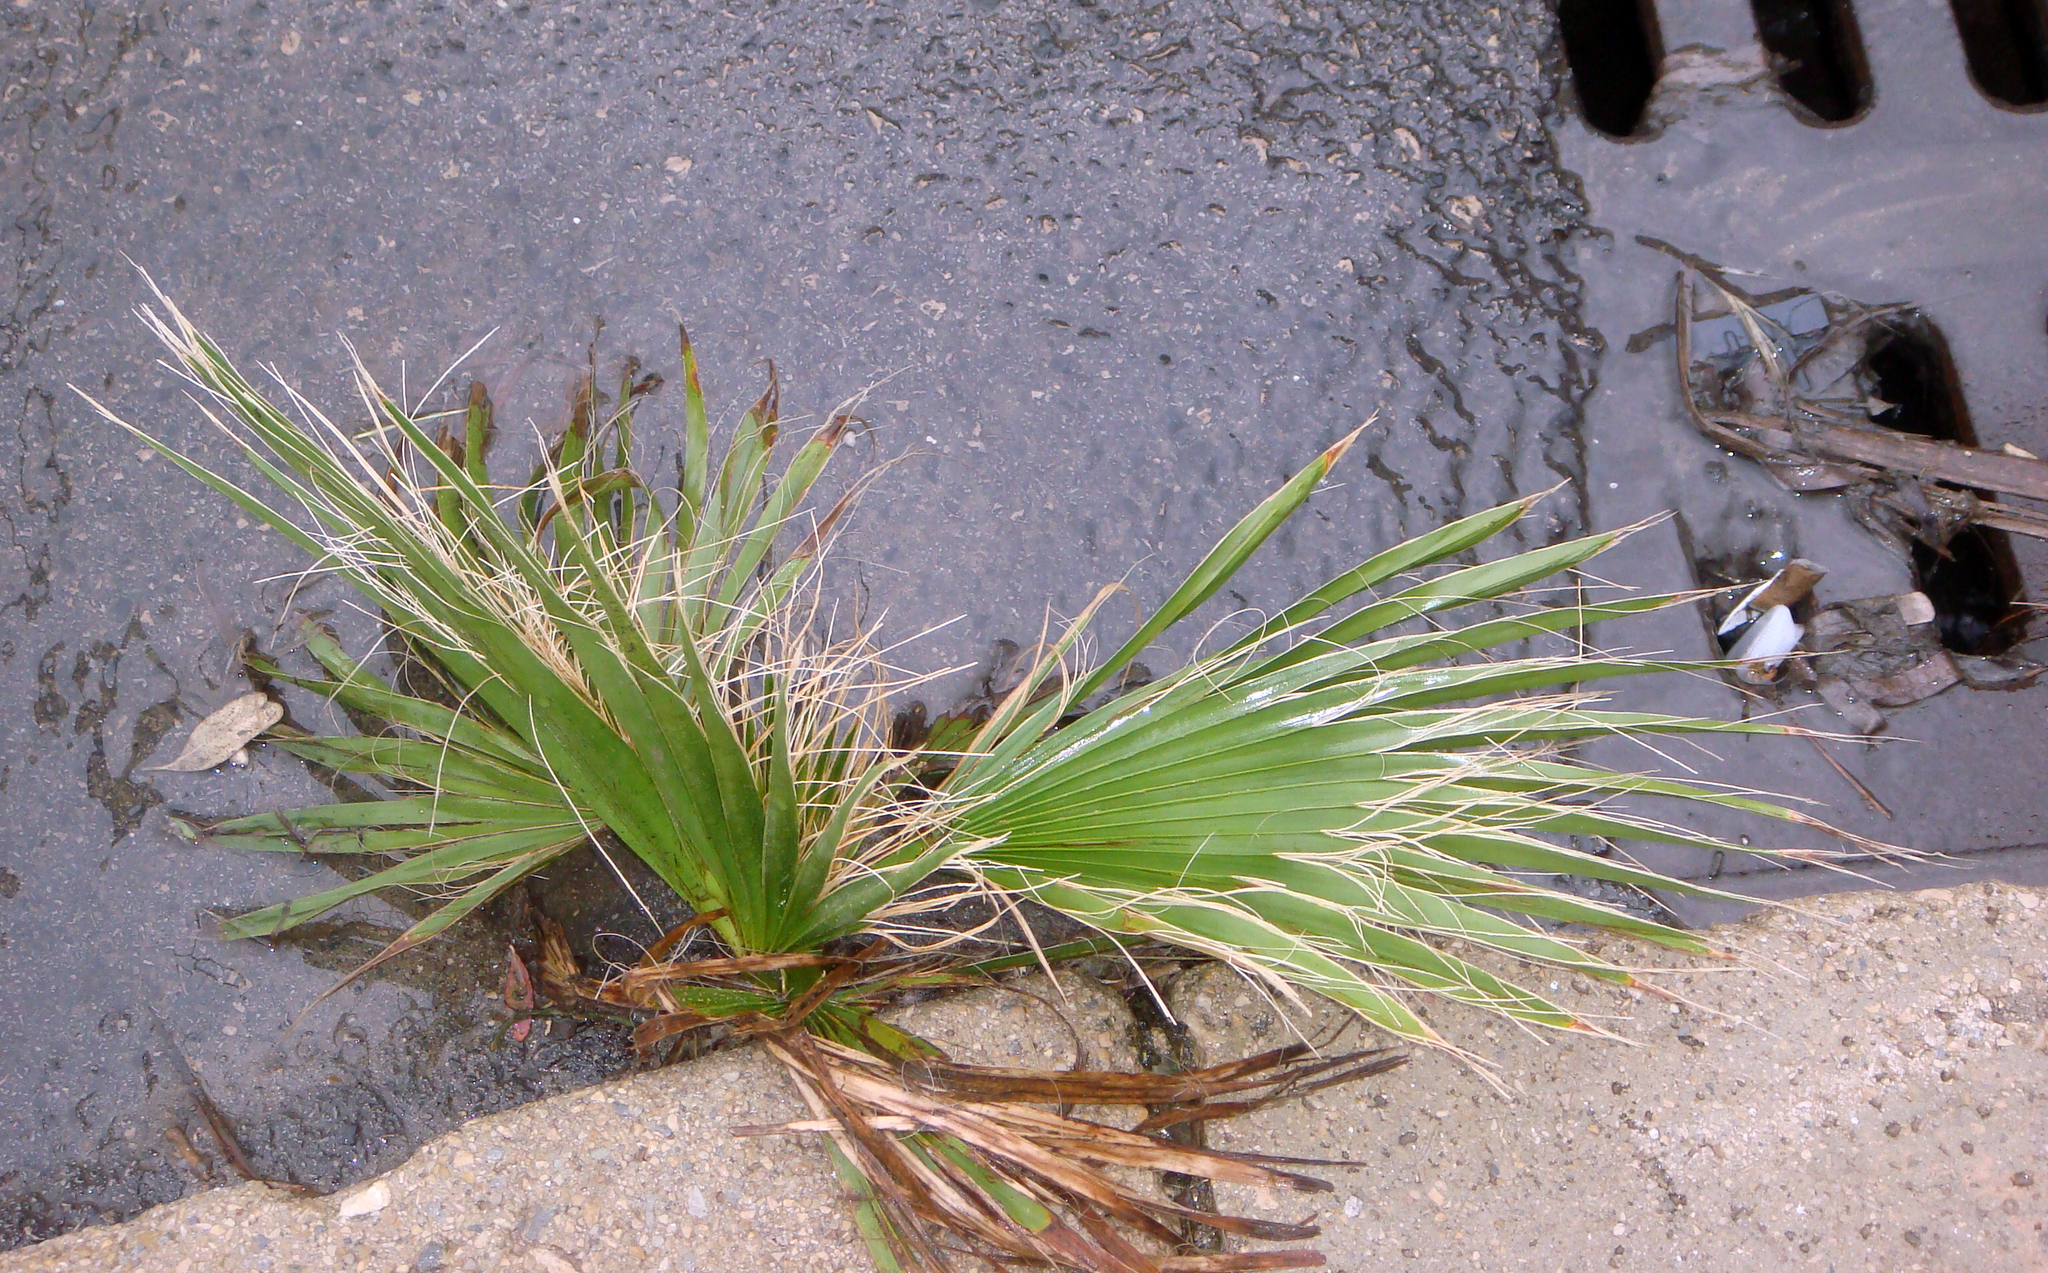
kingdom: Plantae
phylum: Tracheophyta
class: Liliopsida
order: Arecales
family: Arecaceae
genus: Washingtonia
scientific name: Washingtonia robusta
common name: Mexican fan palm
